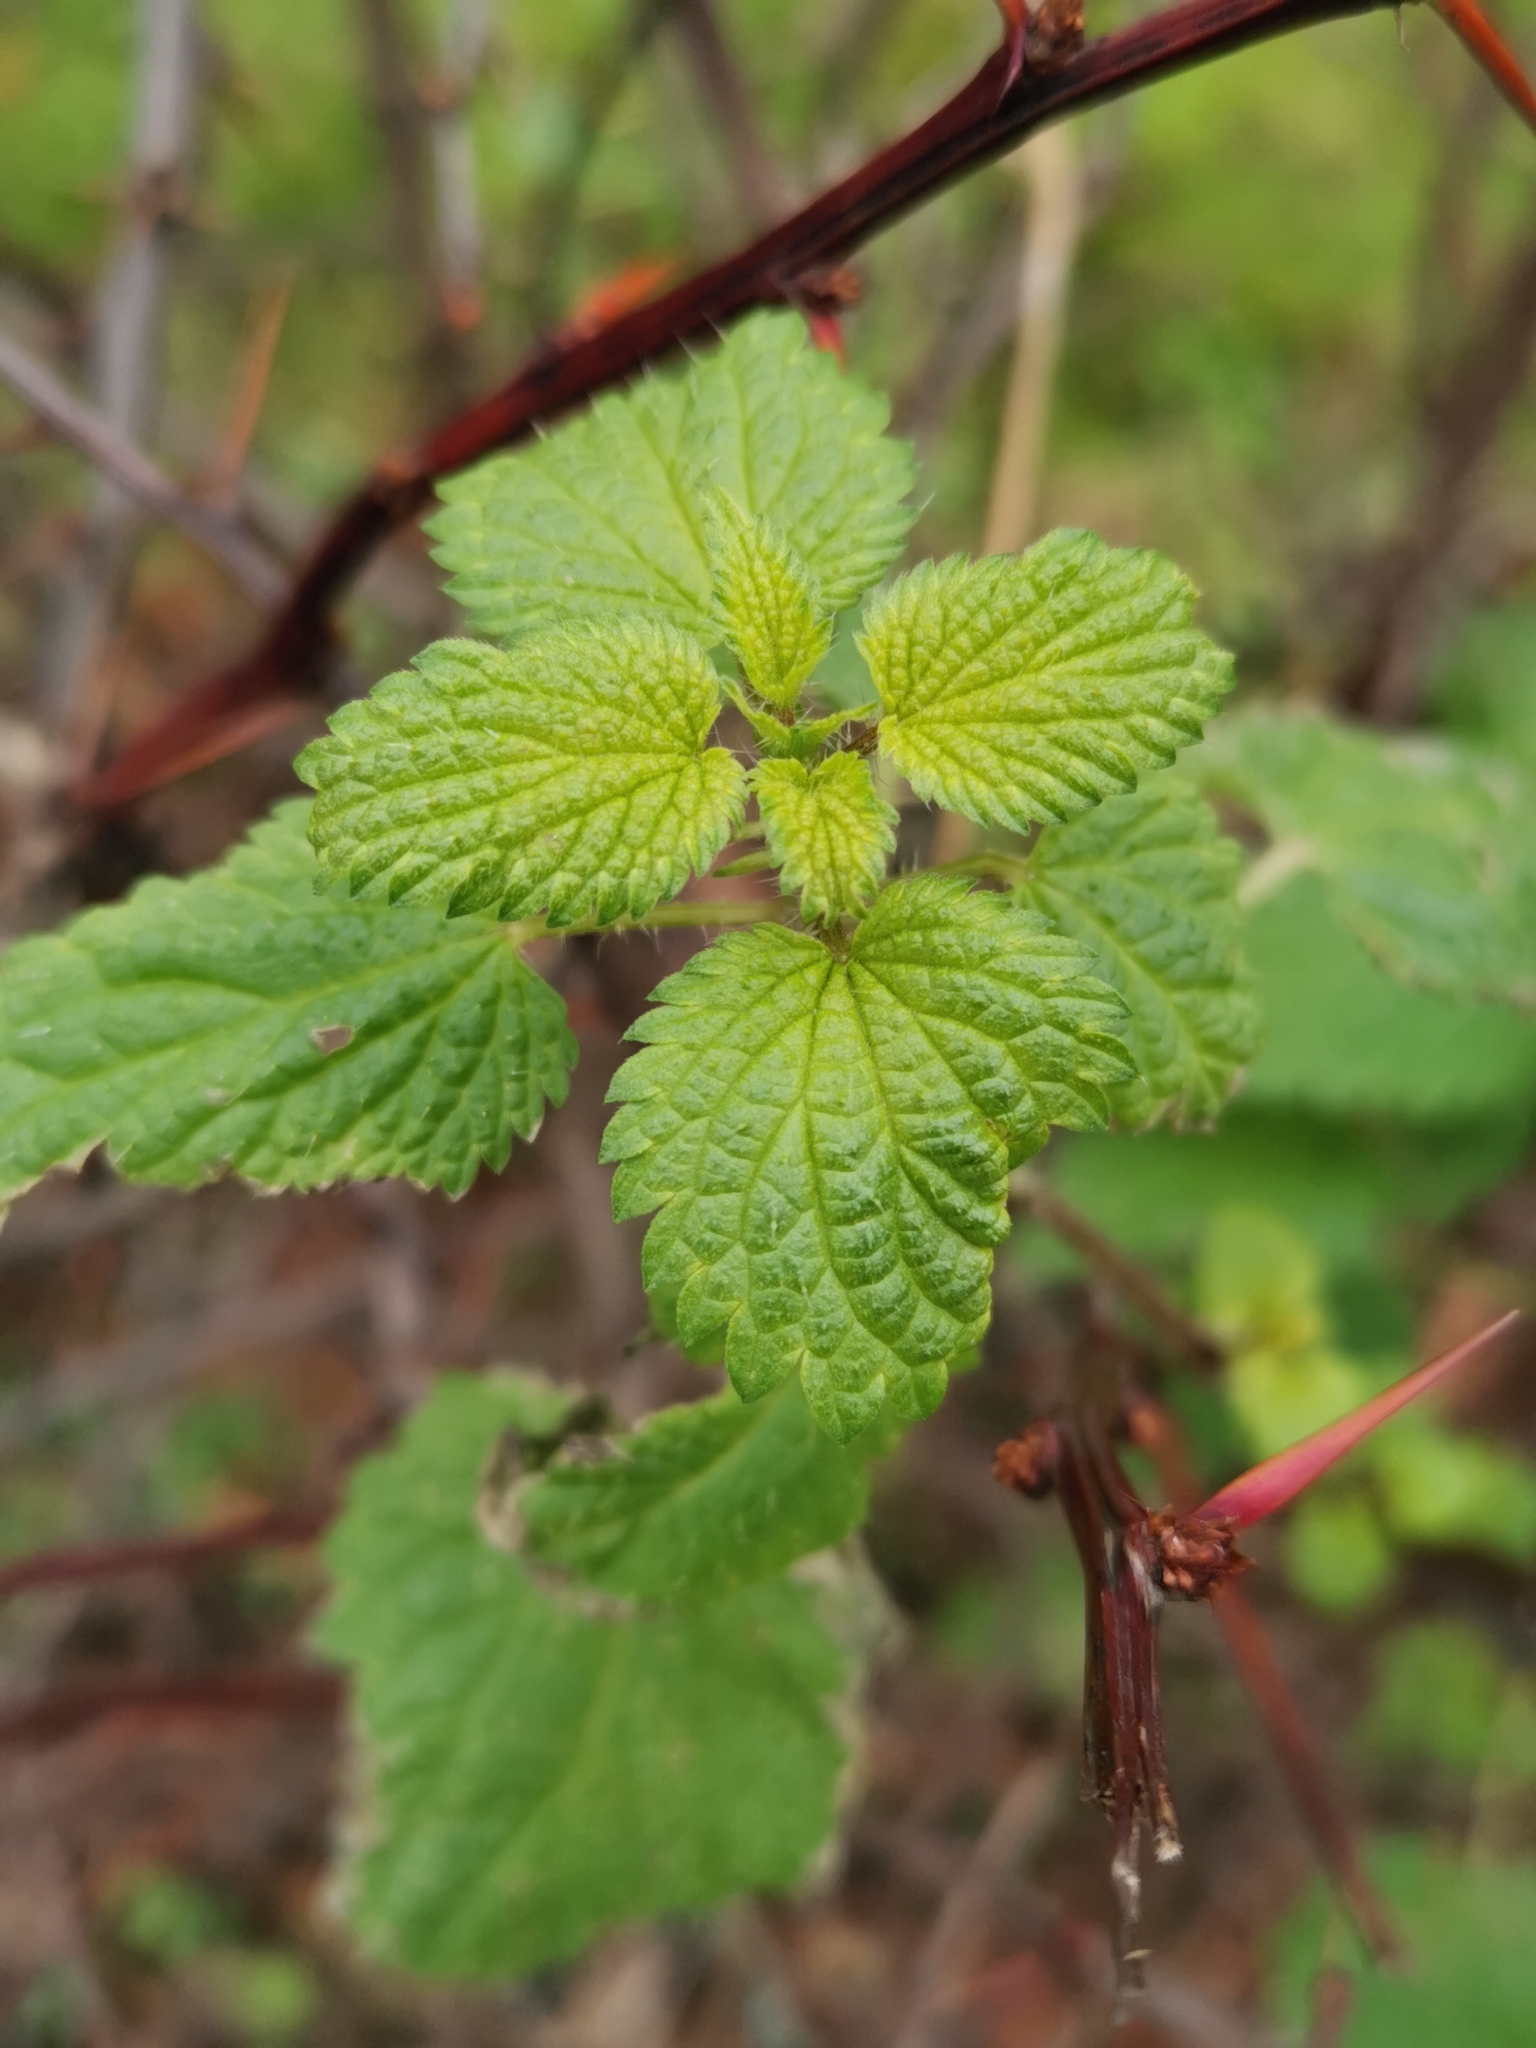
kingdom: Plantae
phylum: Tracheophyta
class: Magnoliopsida
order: Rosales
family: Urticaceae
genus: Urtica
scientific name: Urtica dioica
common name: Common nettle
